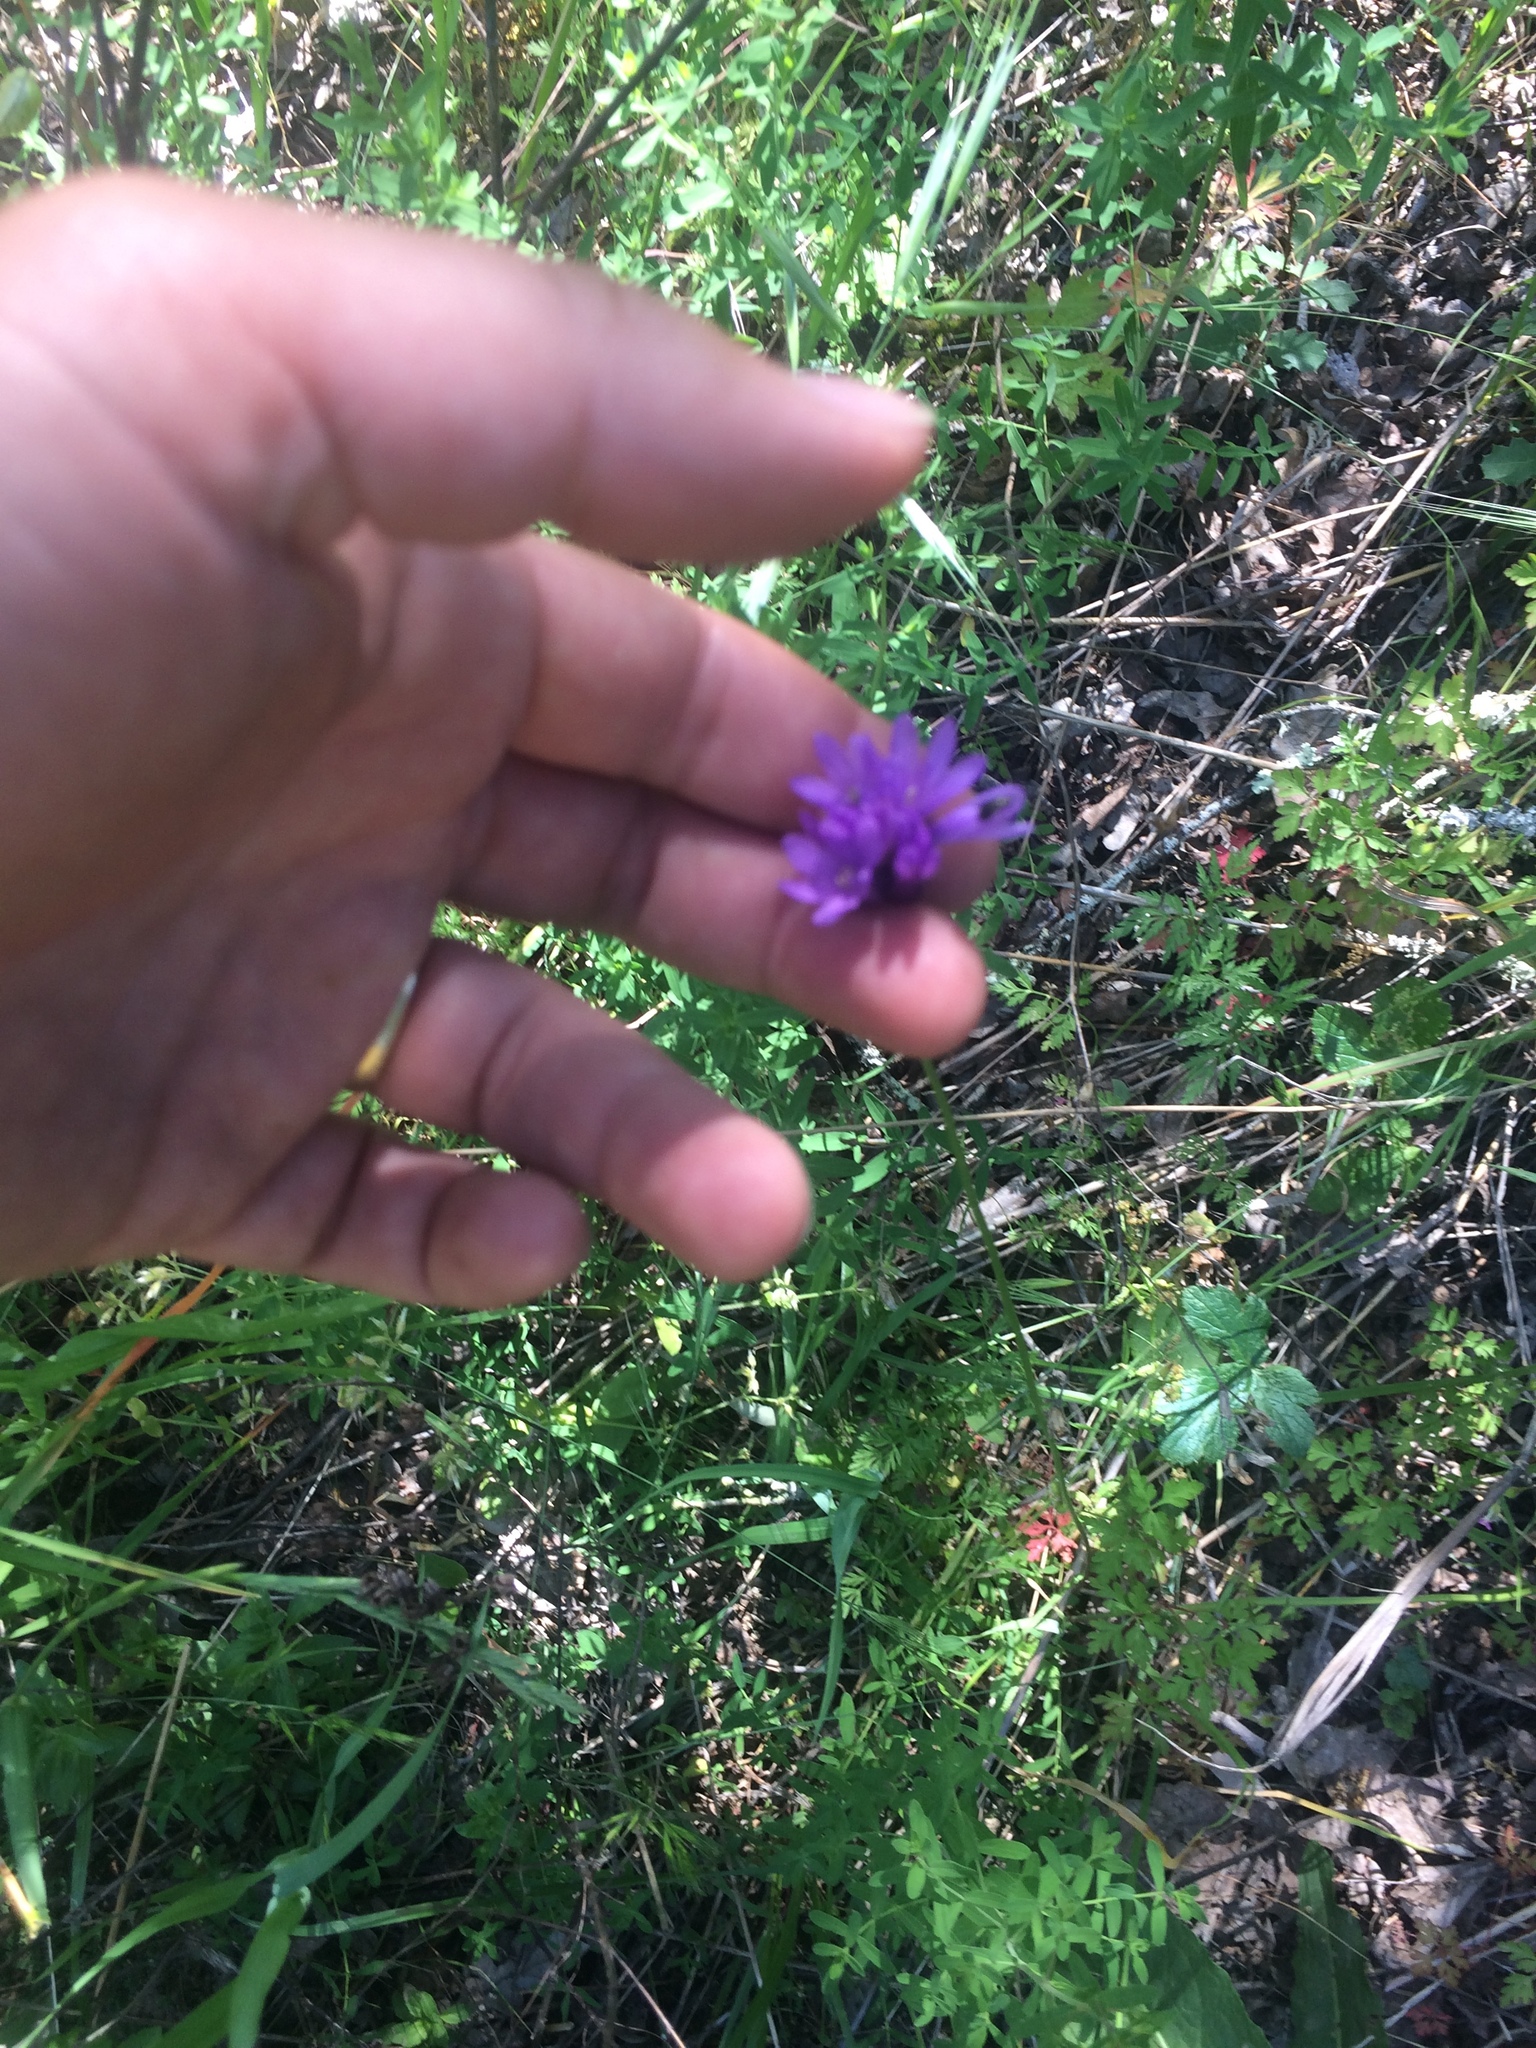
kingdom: Plantae
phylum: Tracheophyta
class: Liliopsida
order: Asparagales
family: Asparagaceae
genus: Dichelostemma
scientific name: Dichelostemma congestum
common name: Fork-tooth ookow
